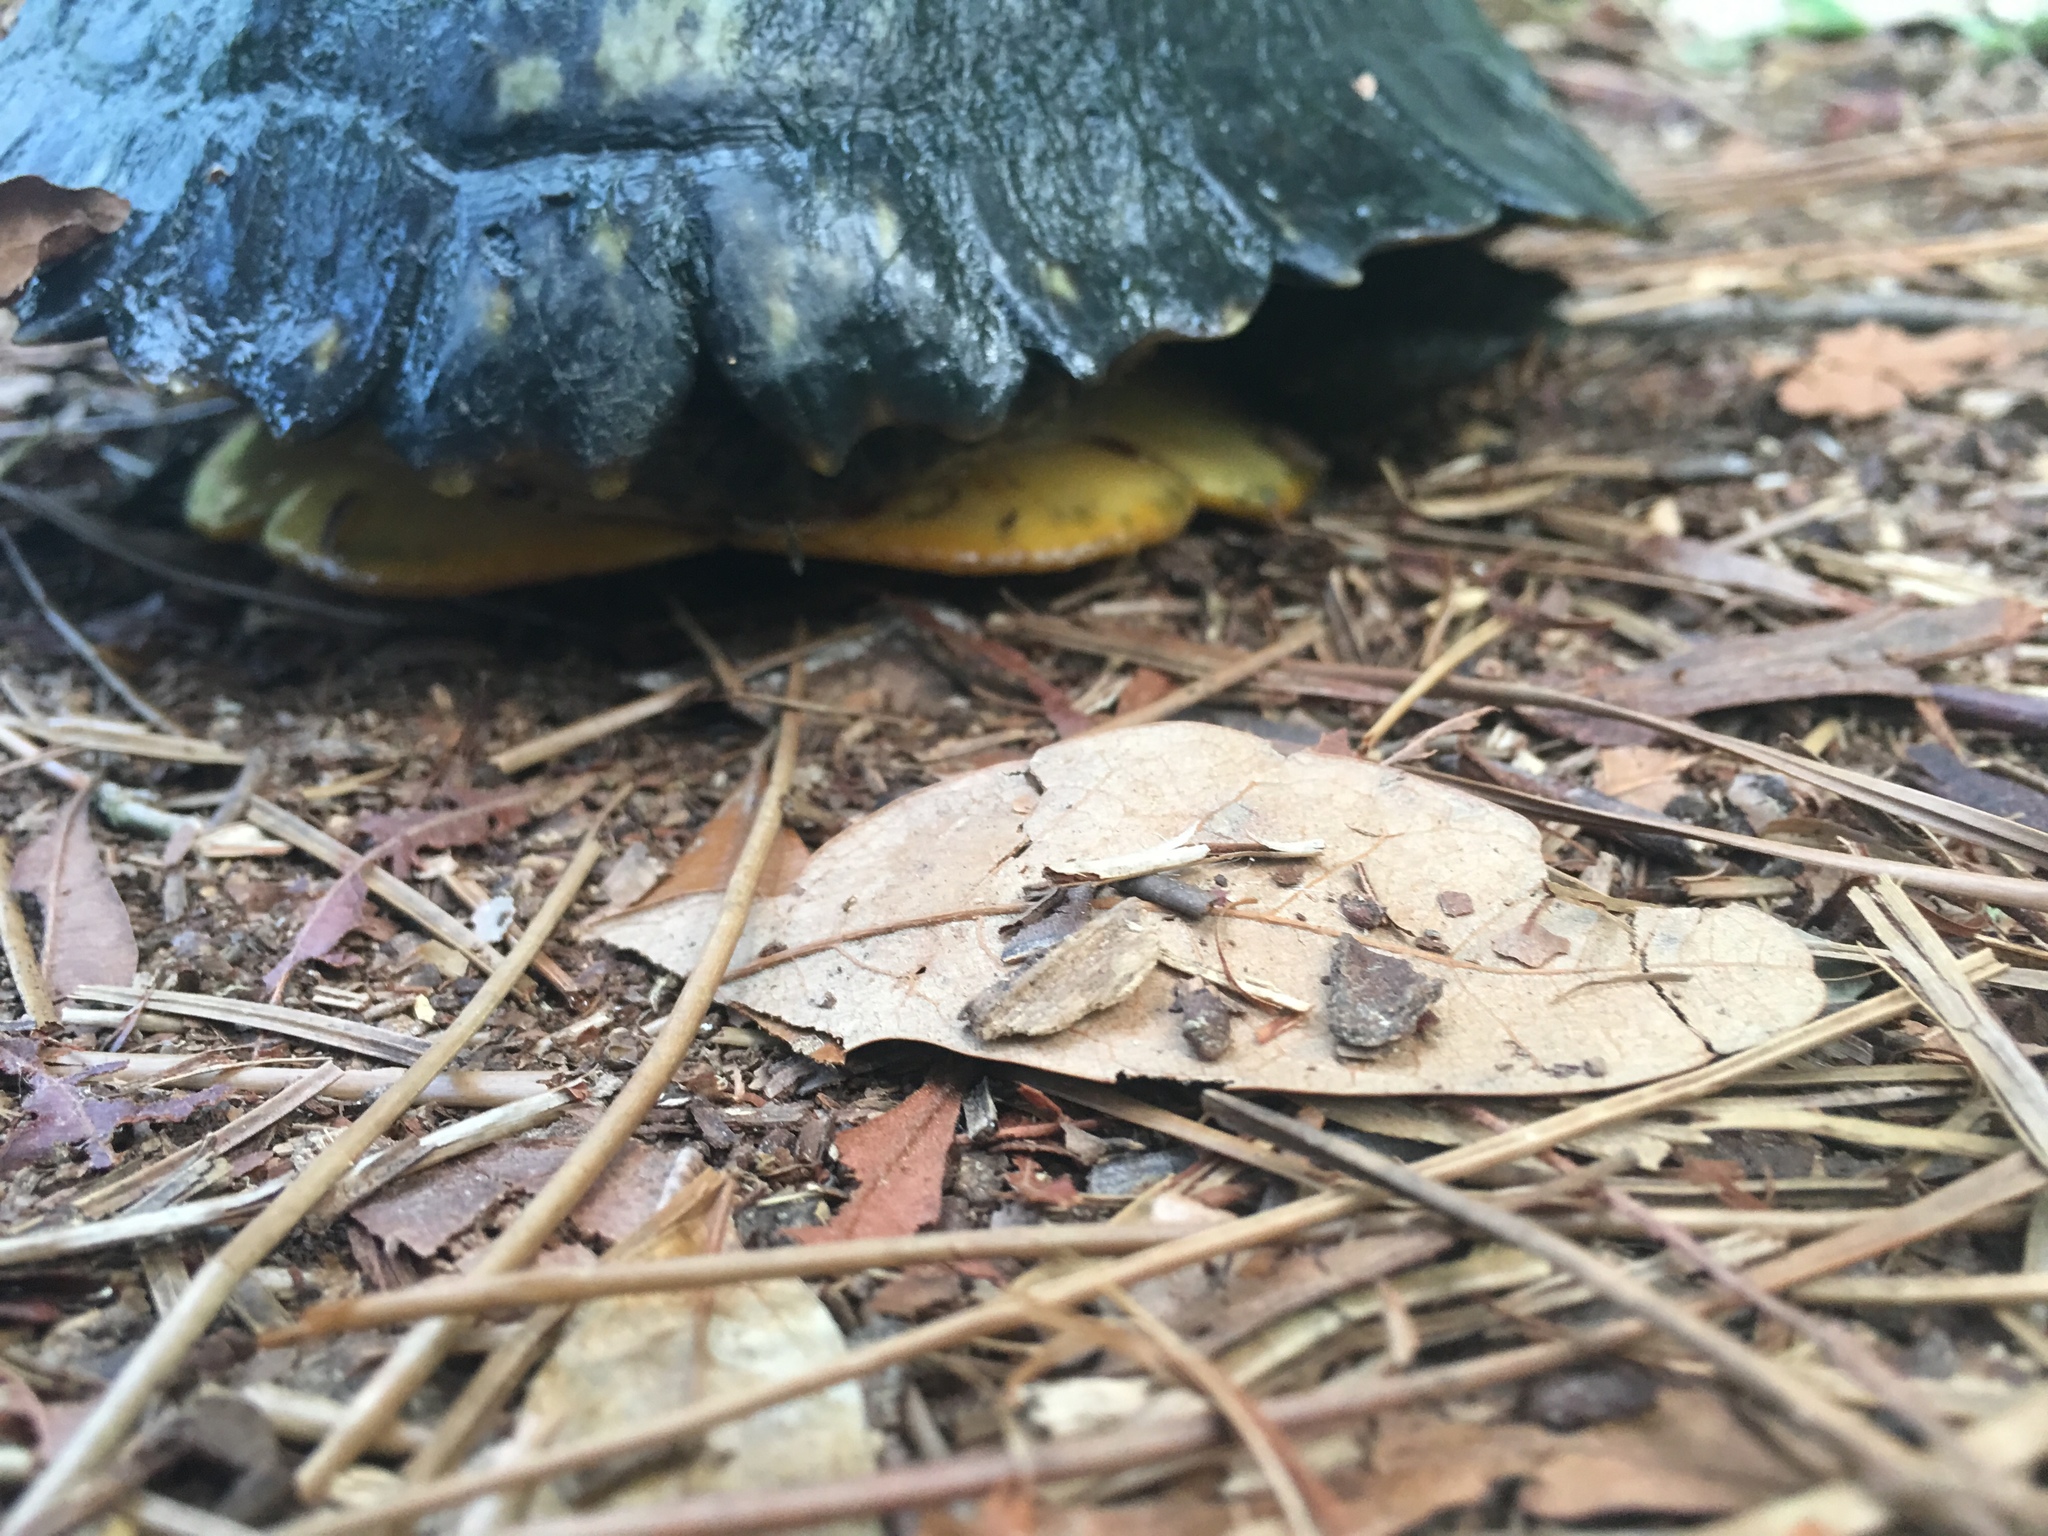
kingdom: Animalia
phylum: Chordata
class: Testudines
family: Emydidae
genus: Trachemys
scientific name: Trachemys scripta
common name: Slider
